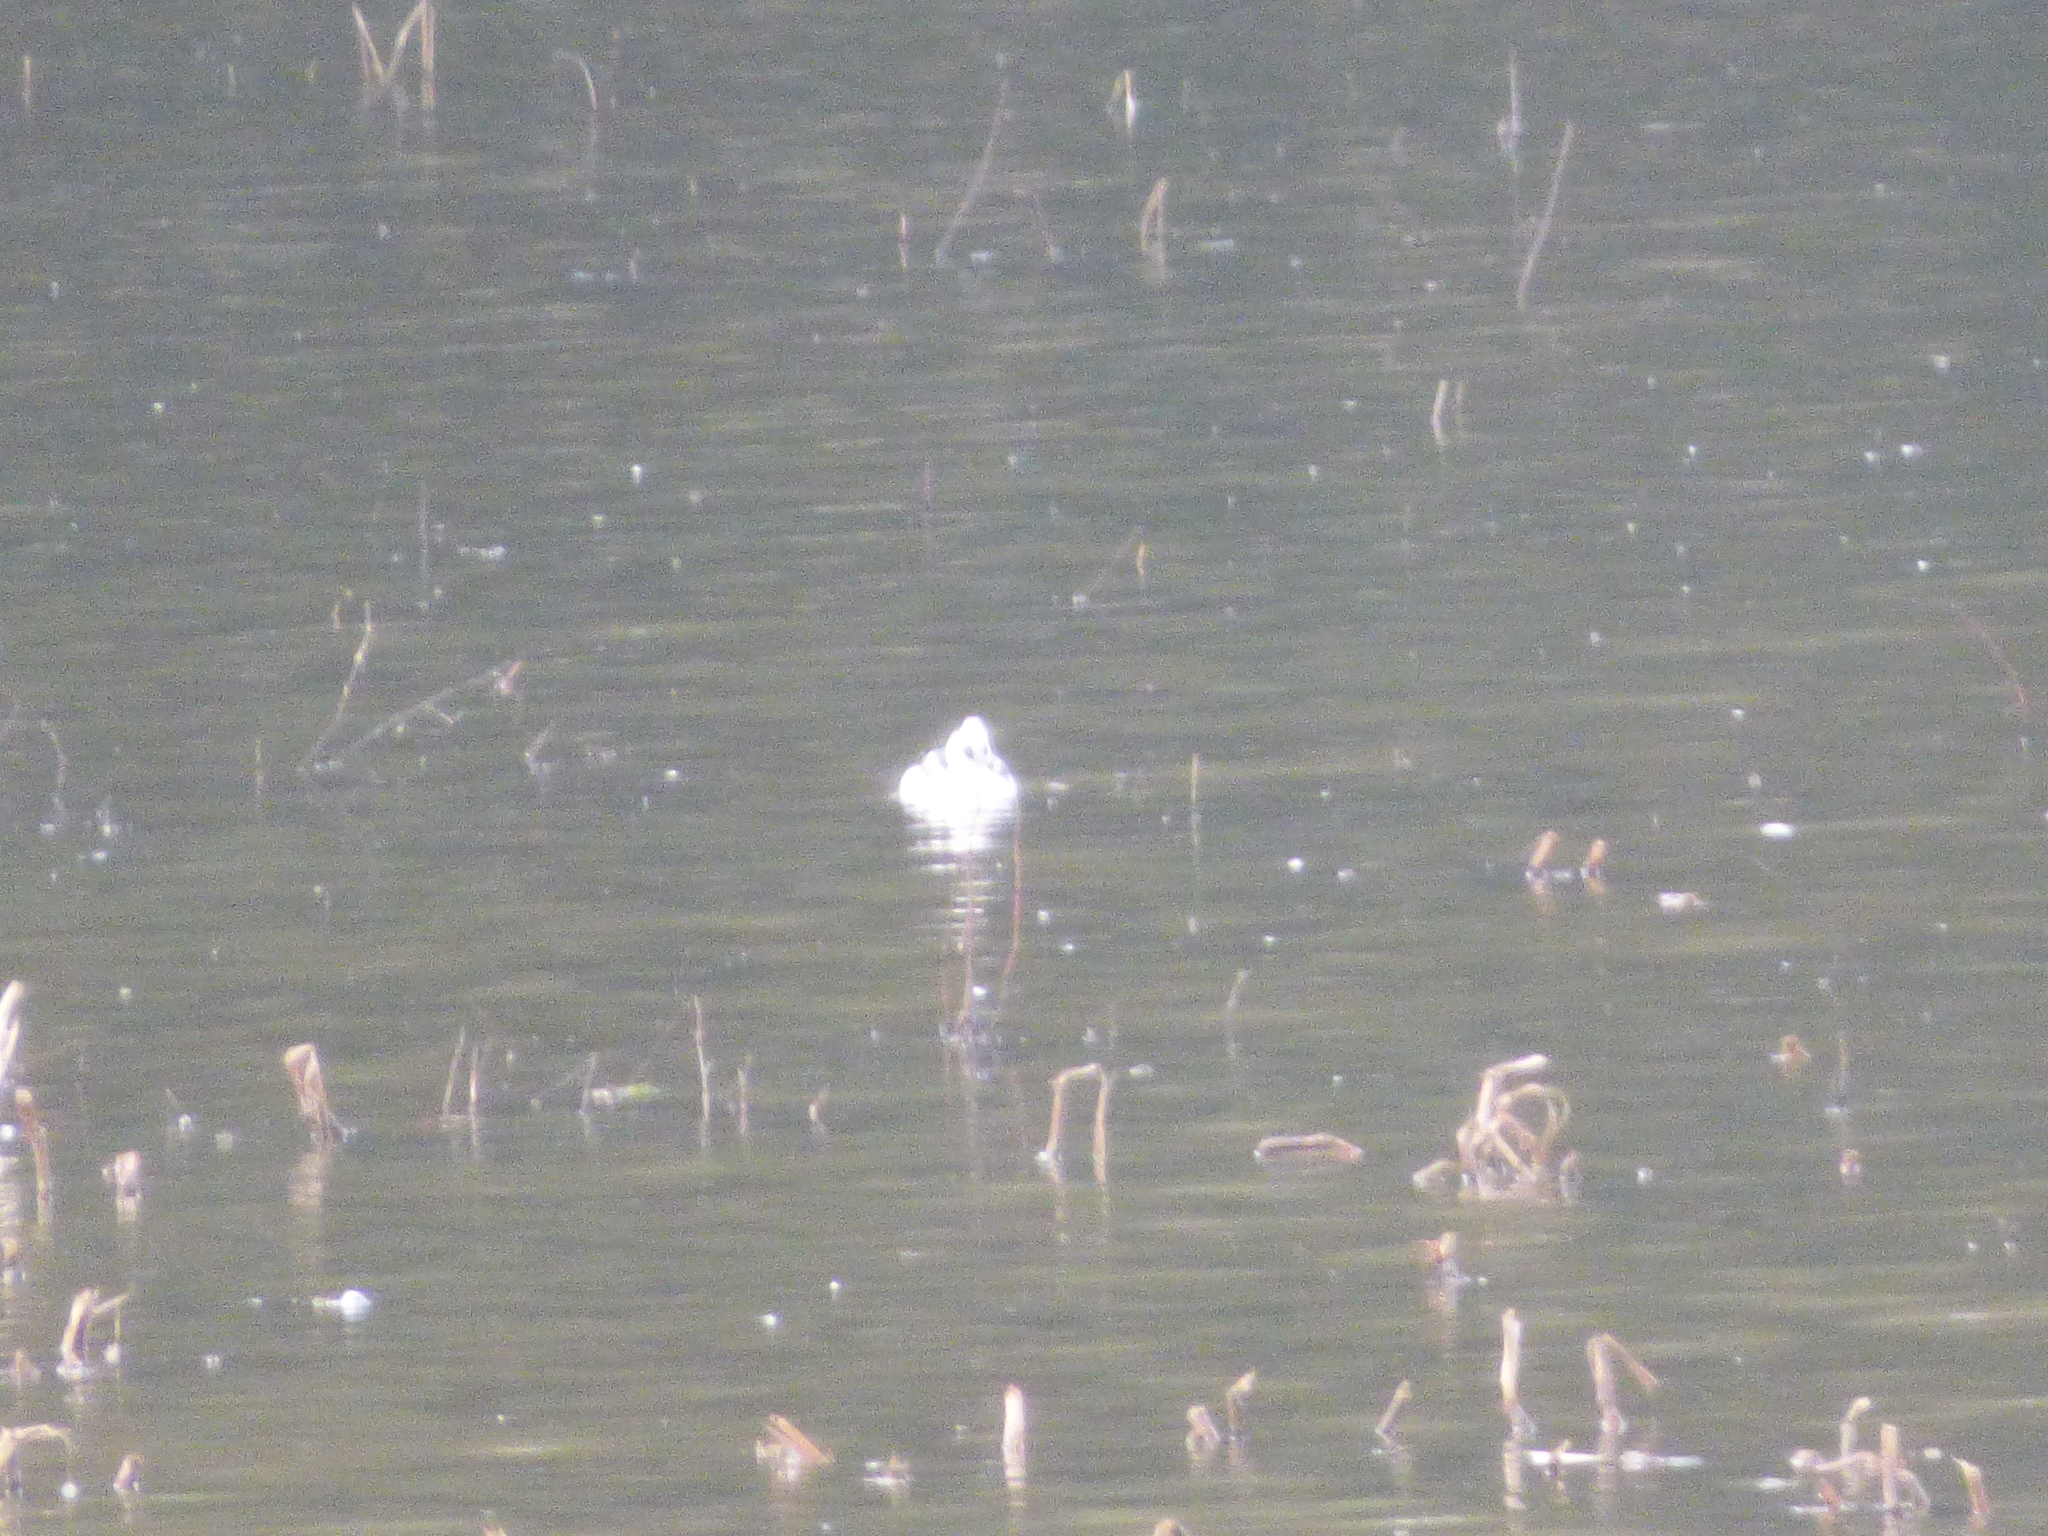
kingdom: Animalia
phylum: Chordata
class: Aves
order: Anseriformes
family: Anatidae
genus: Mergellus
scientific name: Mergellus albellus
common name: Smew
